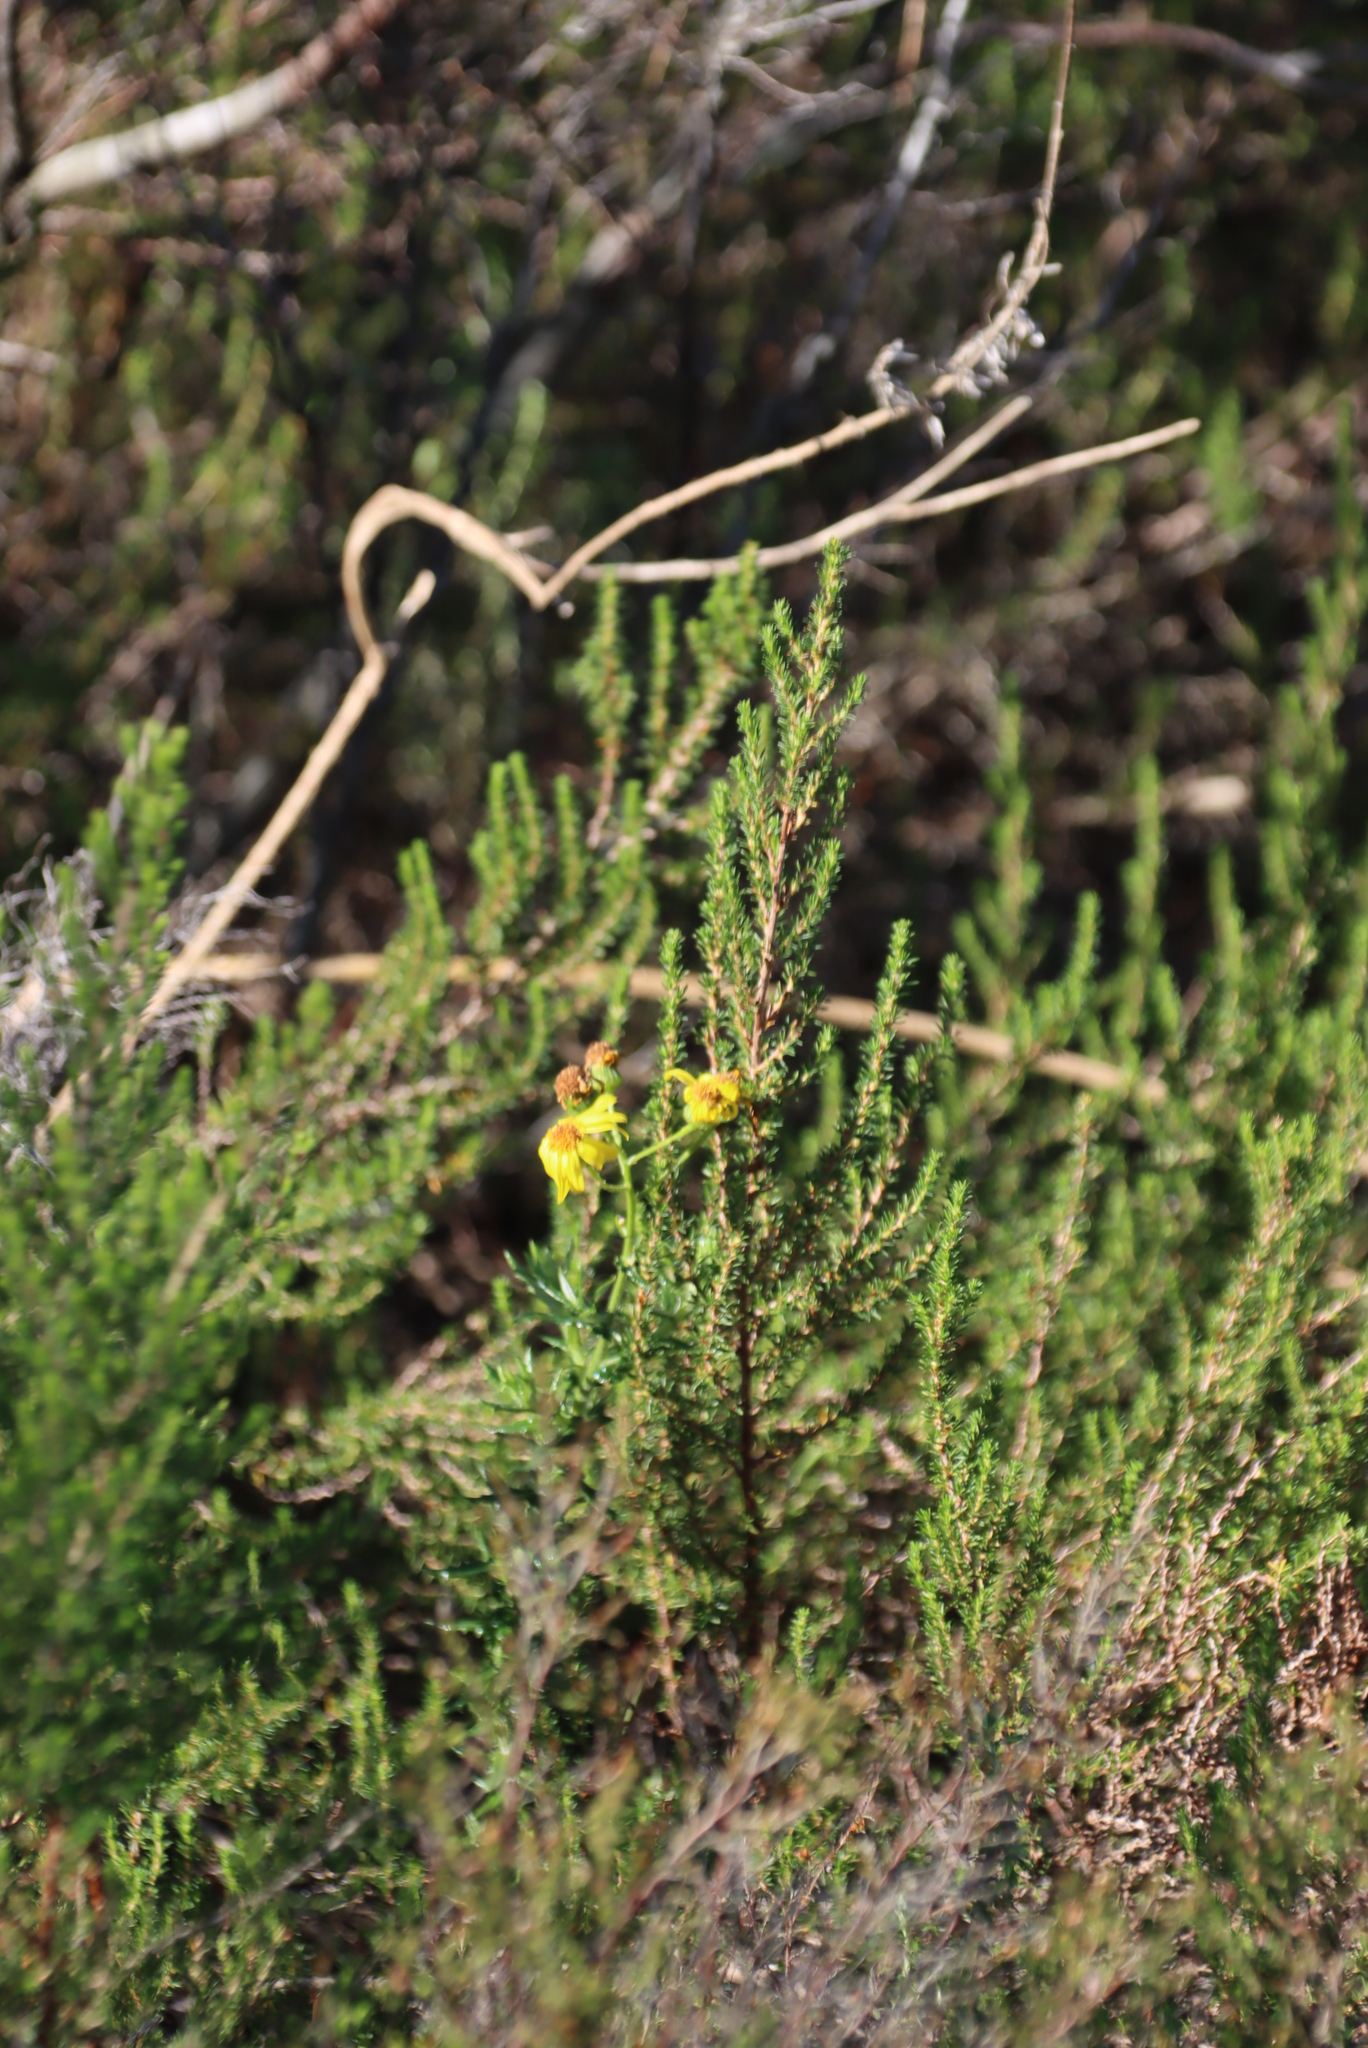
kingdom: Plantae
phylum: Tracheophyta
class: Magnoliopsida
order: Rosales
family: Rosaceae
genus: Cliffortia
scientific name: Cliffortia linearifolia
